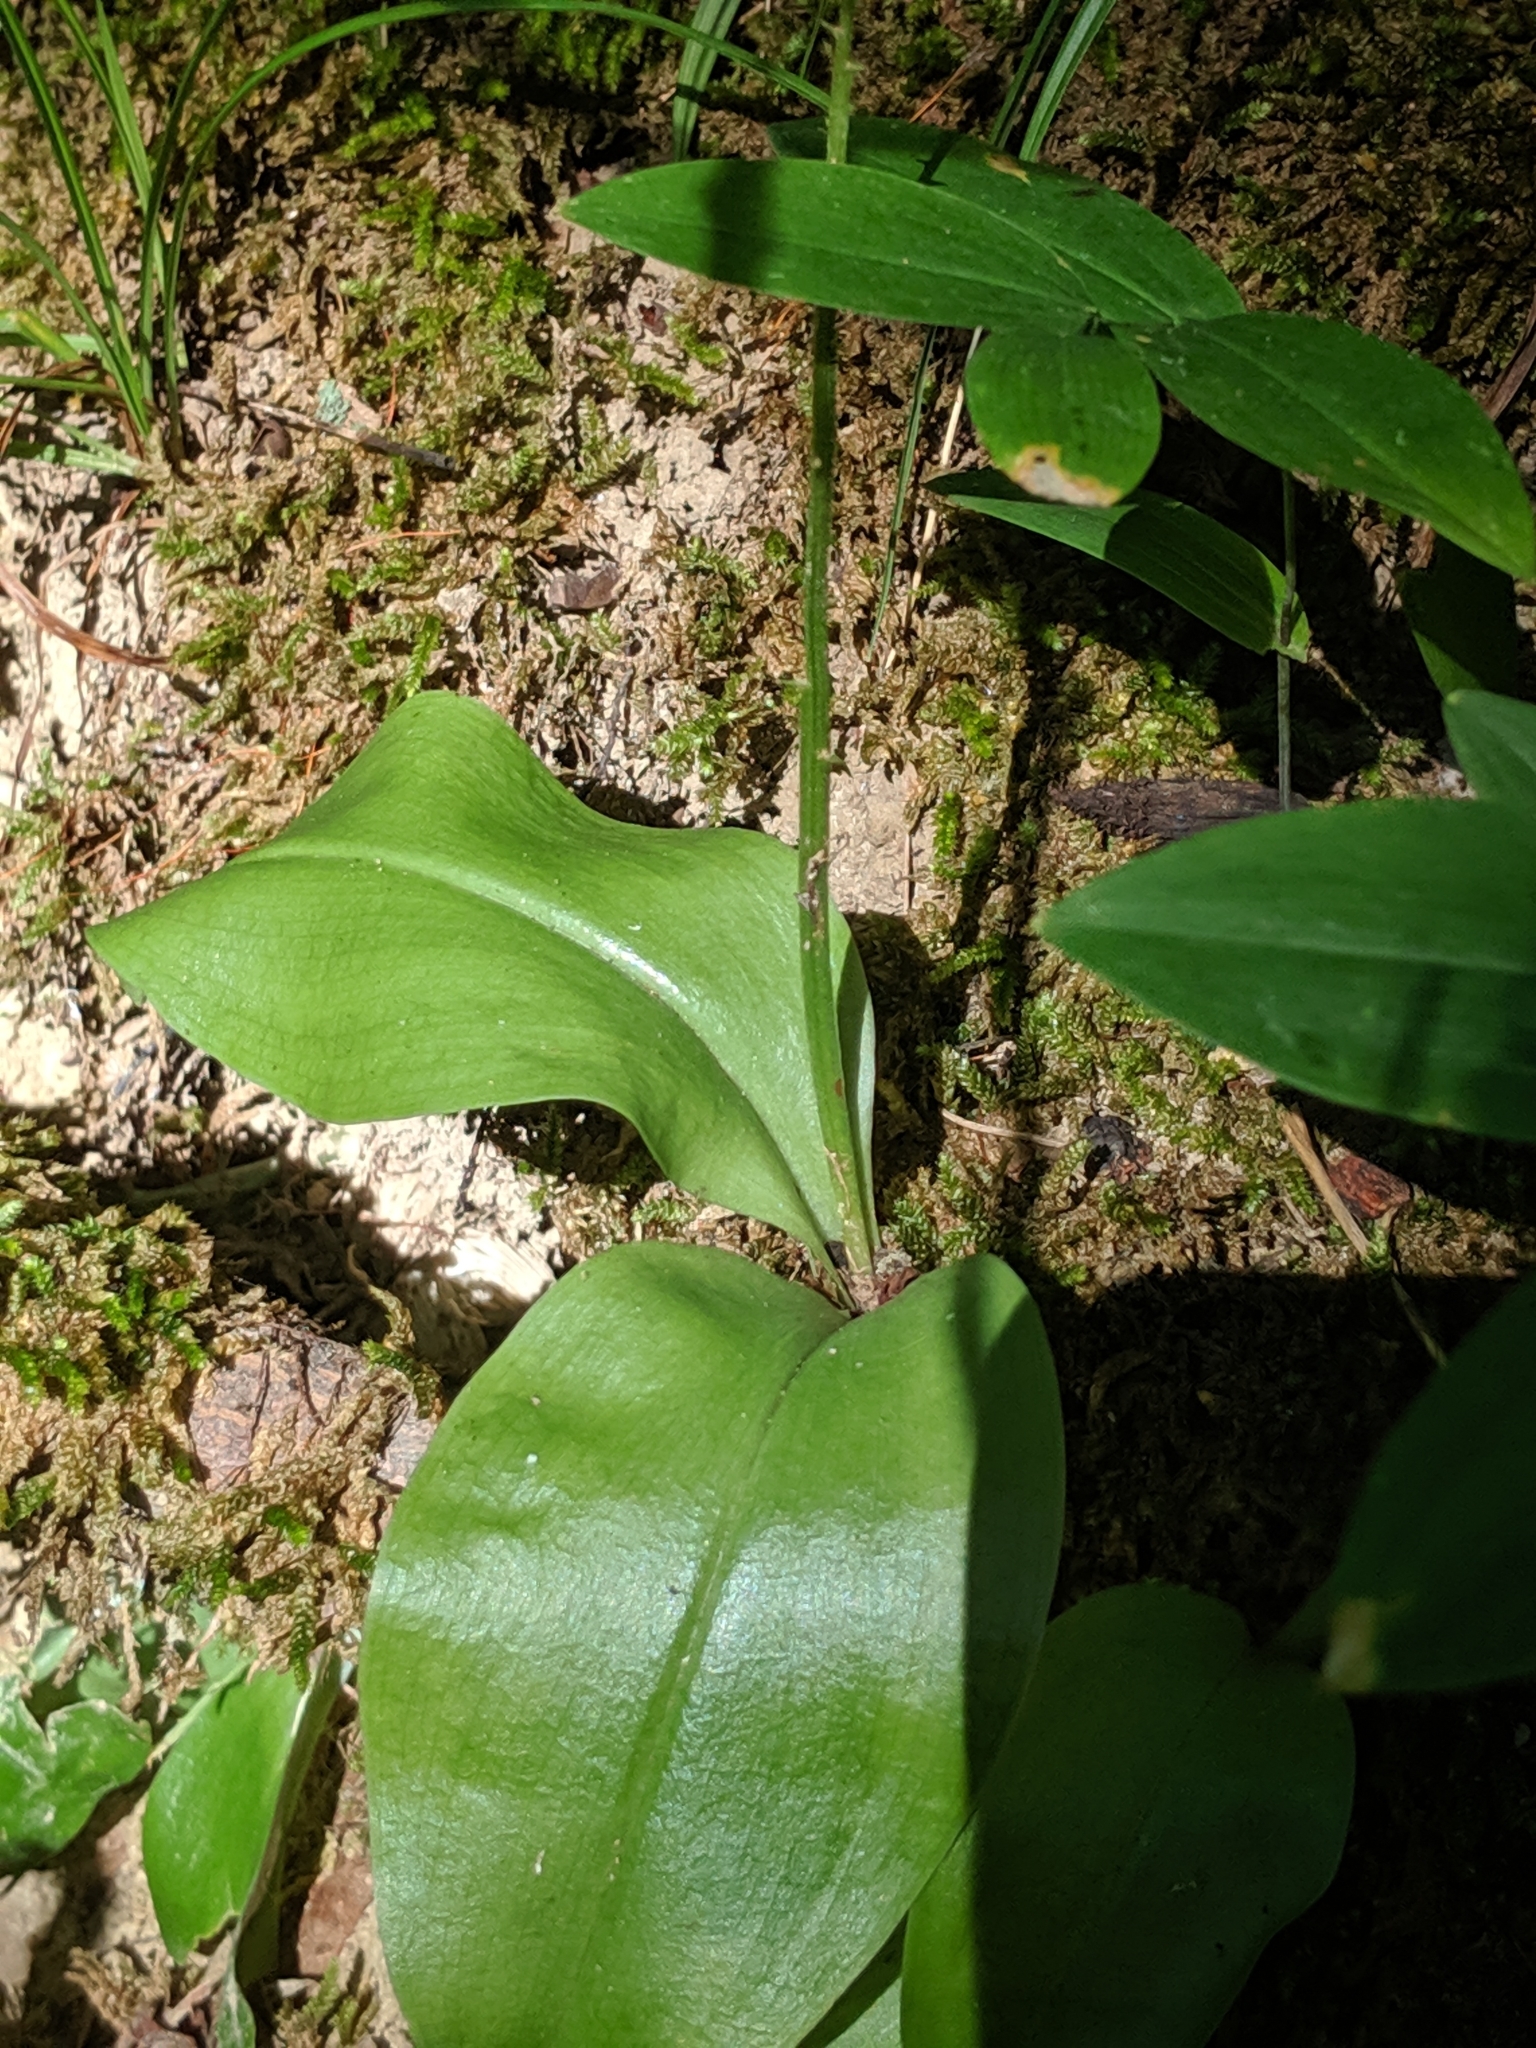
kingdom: Plantae
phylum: Tracheophyta
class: Liliopsida
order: Asparagales
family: Orchidaceae
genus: Liparis
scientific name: Liparis liliifolia
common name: Brown wide-lip orchid
